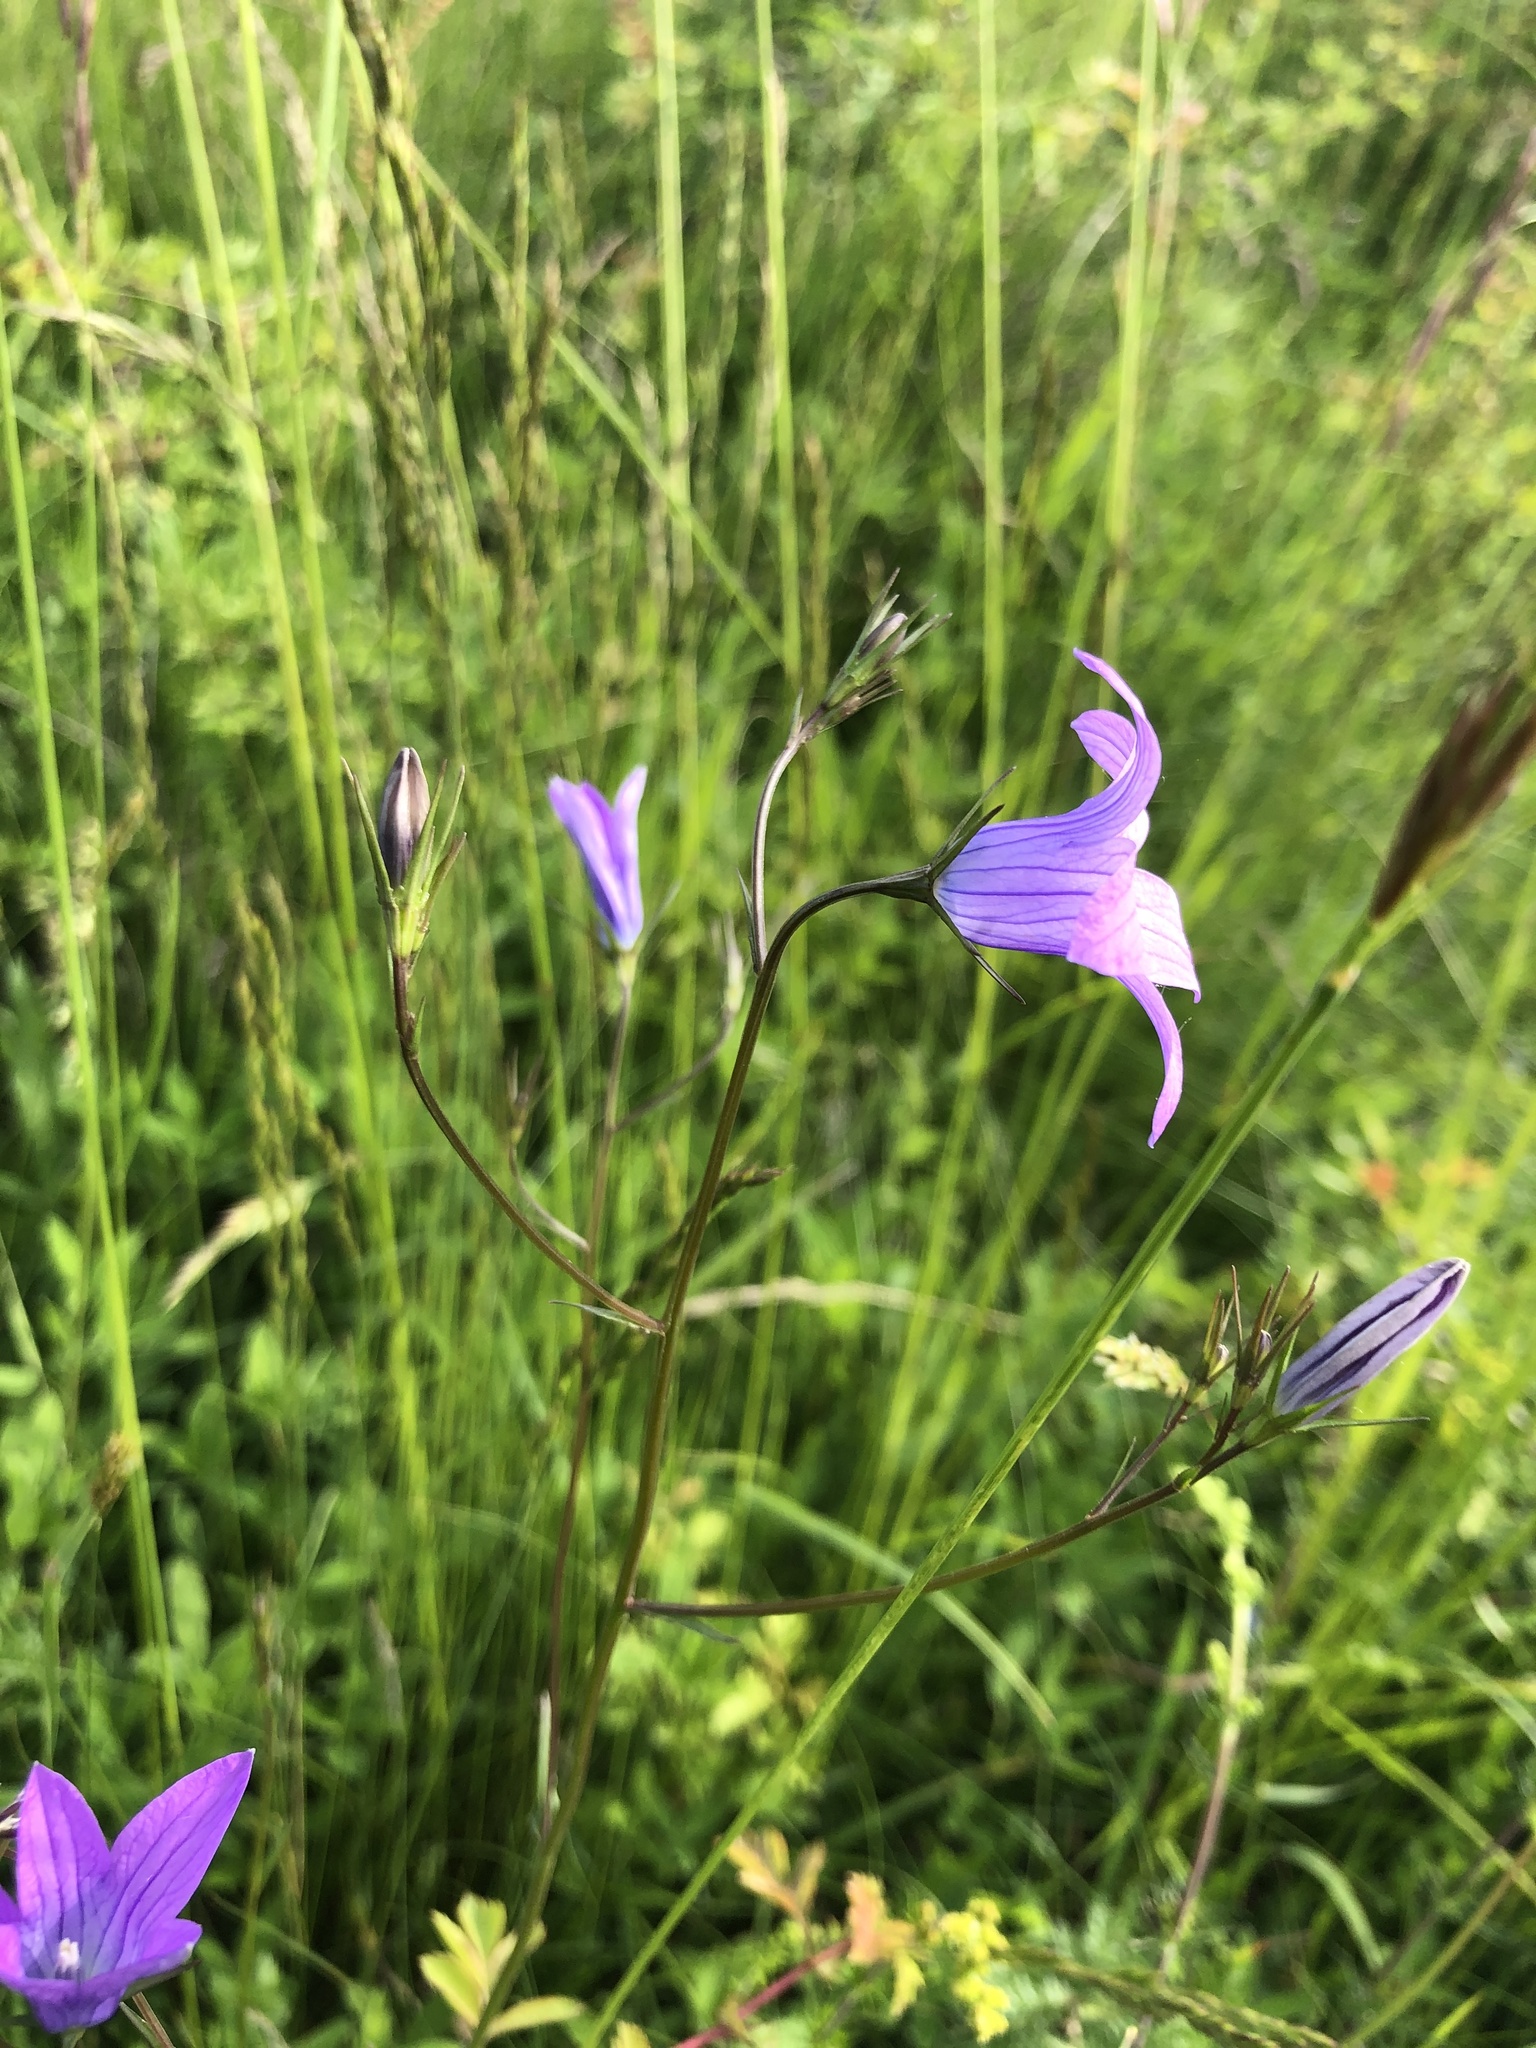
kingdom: Plantae
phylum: Tracheophyta
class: Magnoliopsida
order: Asterales
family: Campanulaceae
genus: Campanula
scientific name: Campanula patula
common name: Spreading bellflower
